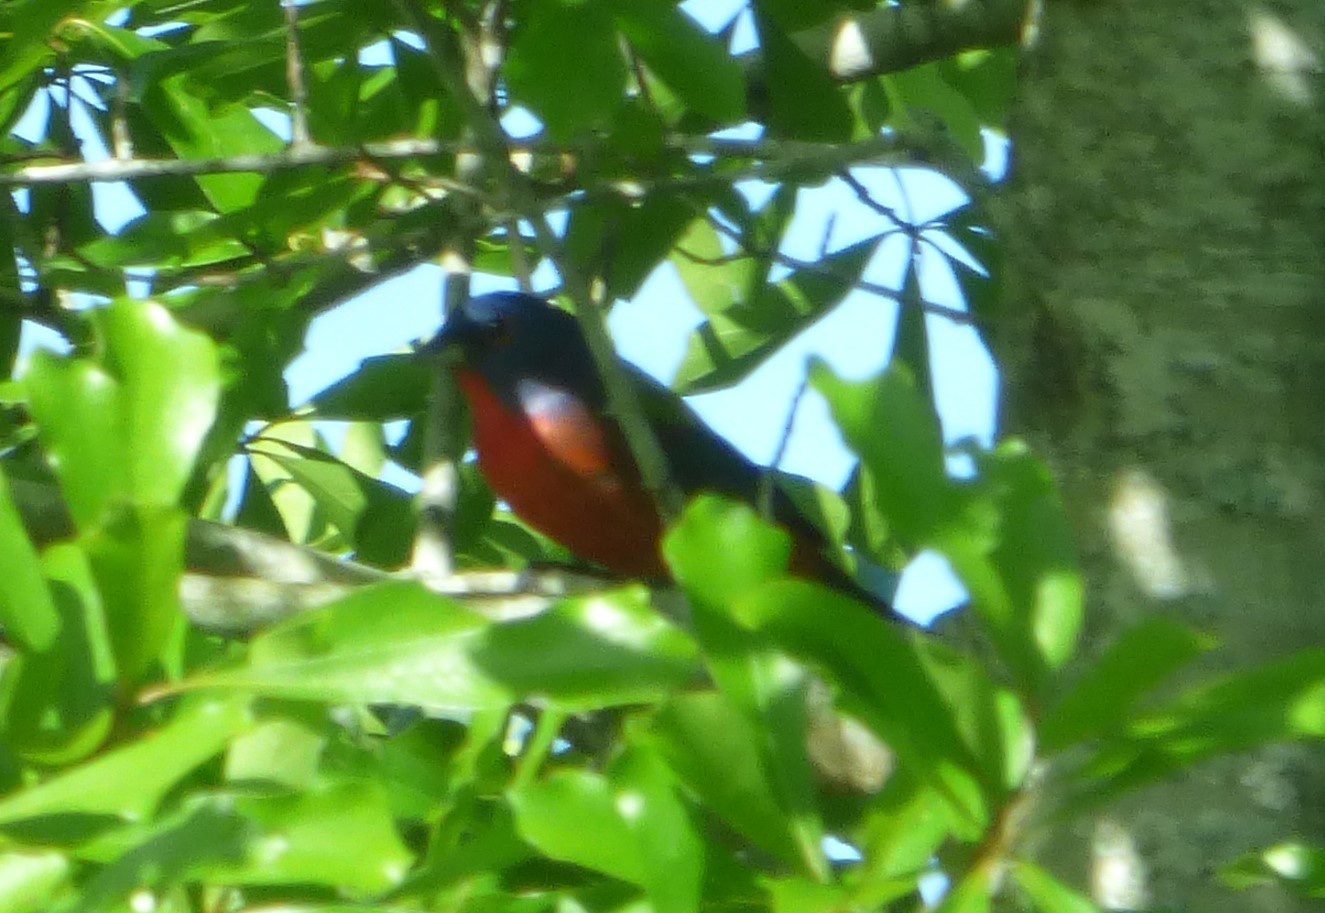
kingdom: Animalia
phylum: Chordata
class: Aves
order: Passeriformes
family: Cardinalidae
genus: Passerina
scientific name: Passerina ciris
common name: Painted bunting
